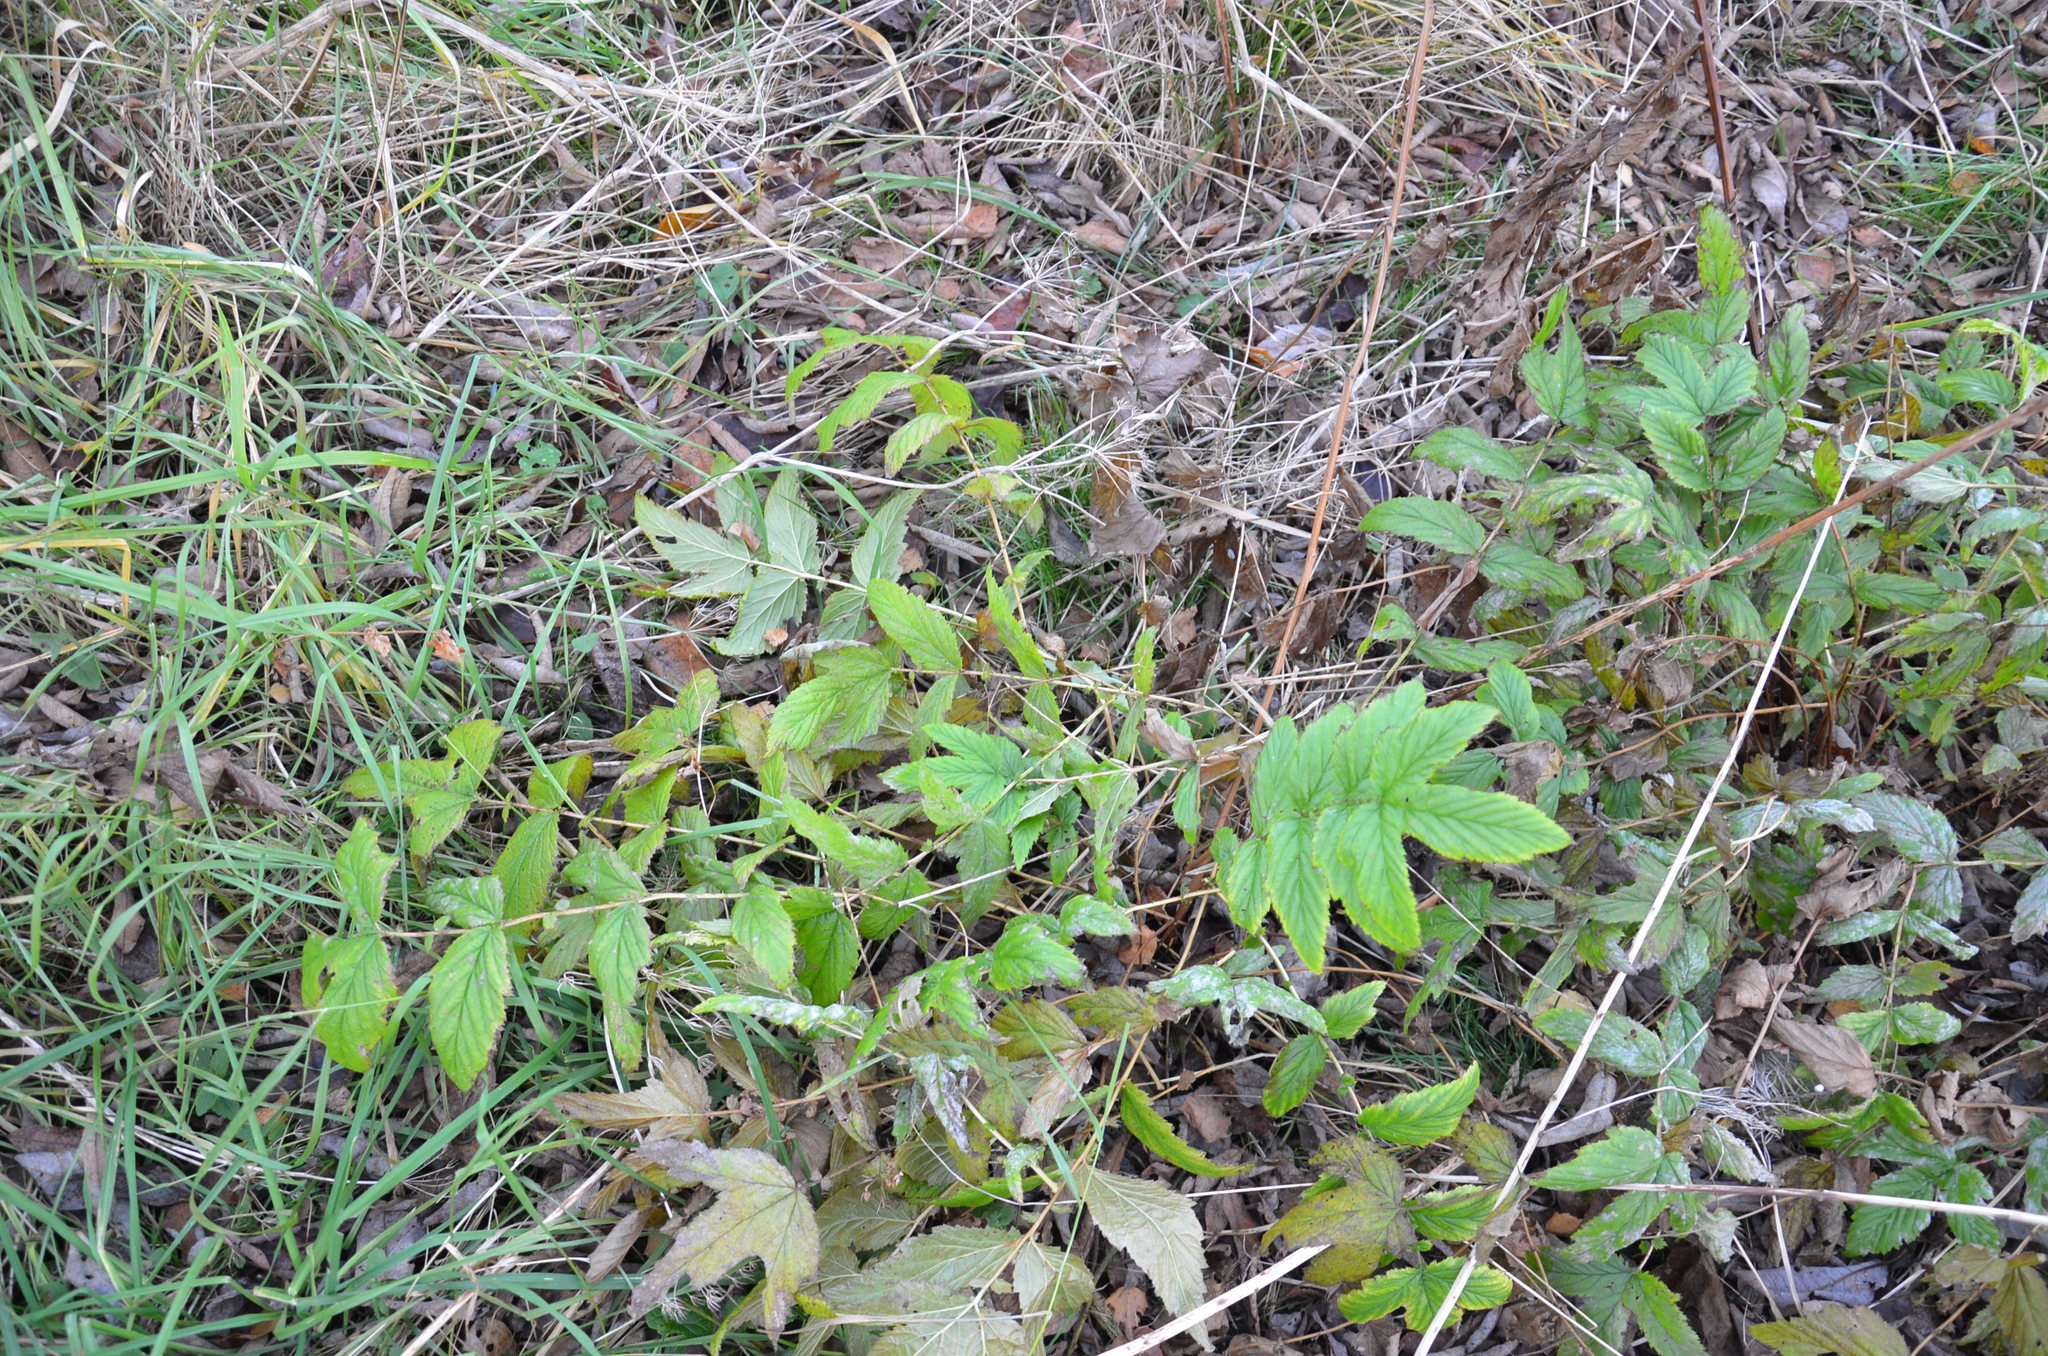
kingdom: Plantae
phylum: Tracheophyta
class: Magnoliopsida
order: Rosales
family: Rosaceae
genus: Filipendula
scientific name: Filipendula ulmaria
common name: Meadowsweet
